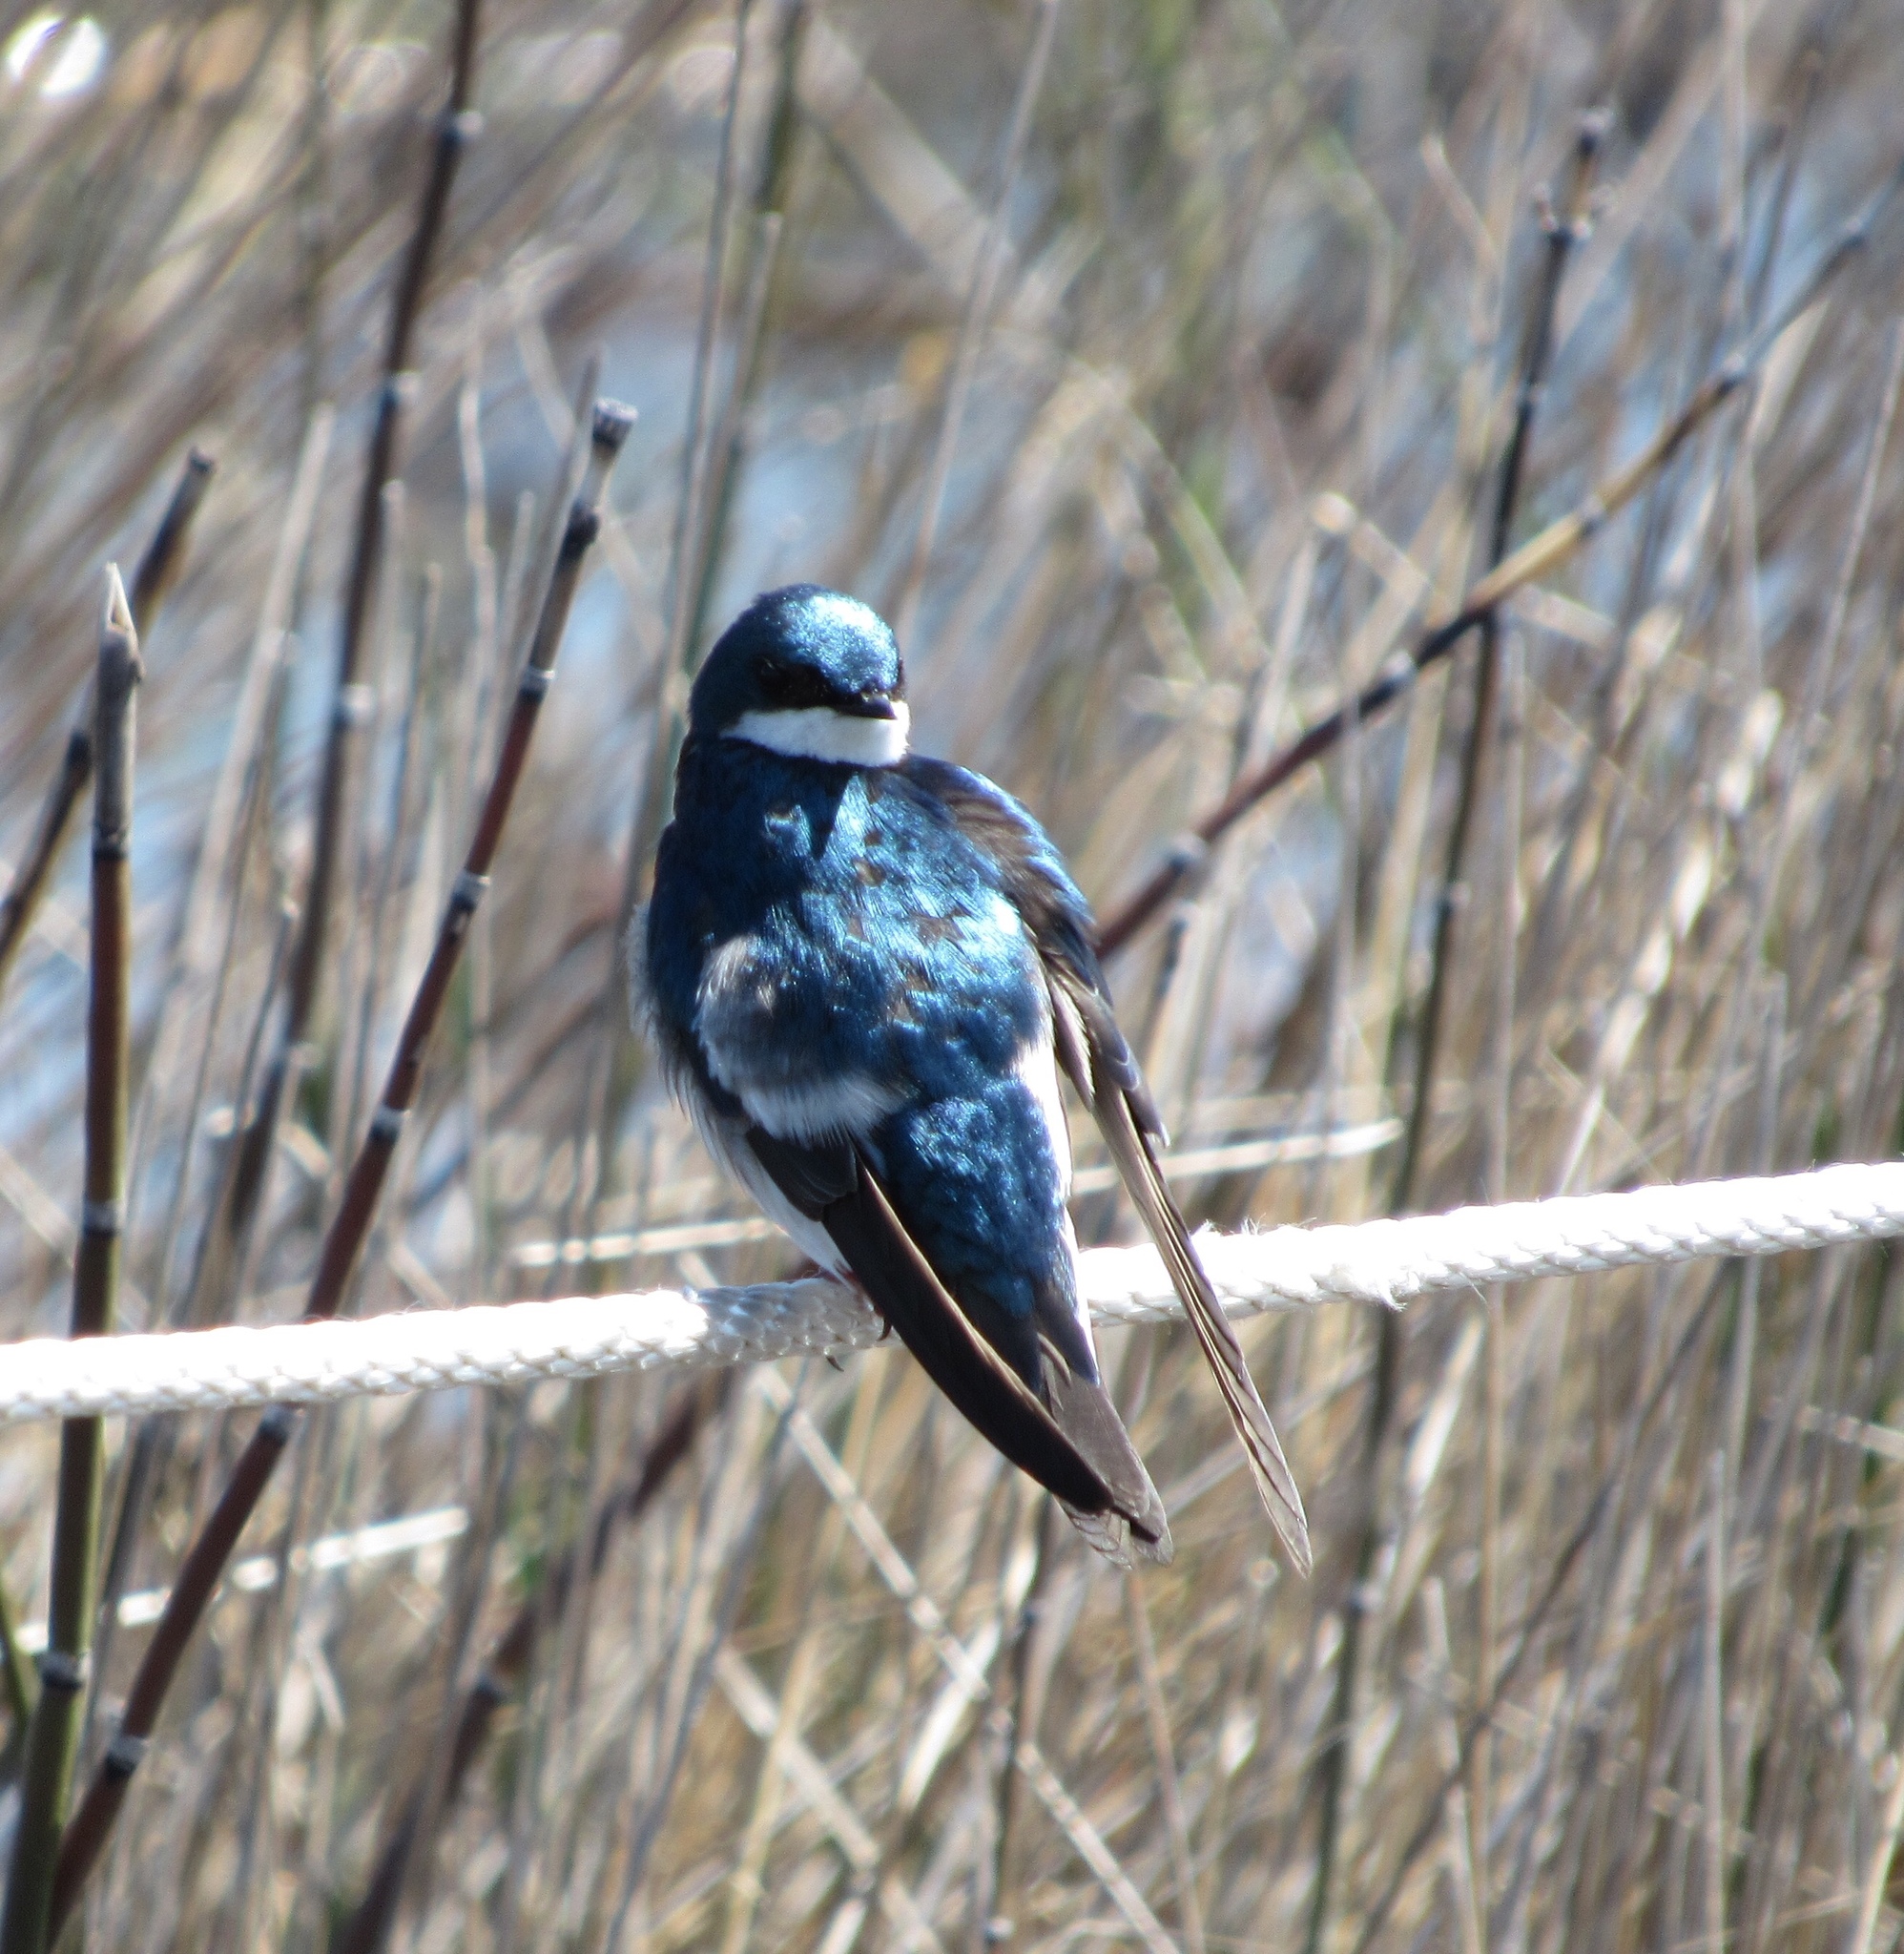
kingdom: Animalia
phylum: Chordata
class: Aves
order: Passeriformes
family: Hirundinidae
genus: Tachycineta
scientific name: Tachycineta bicolor
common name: Tree swallow
